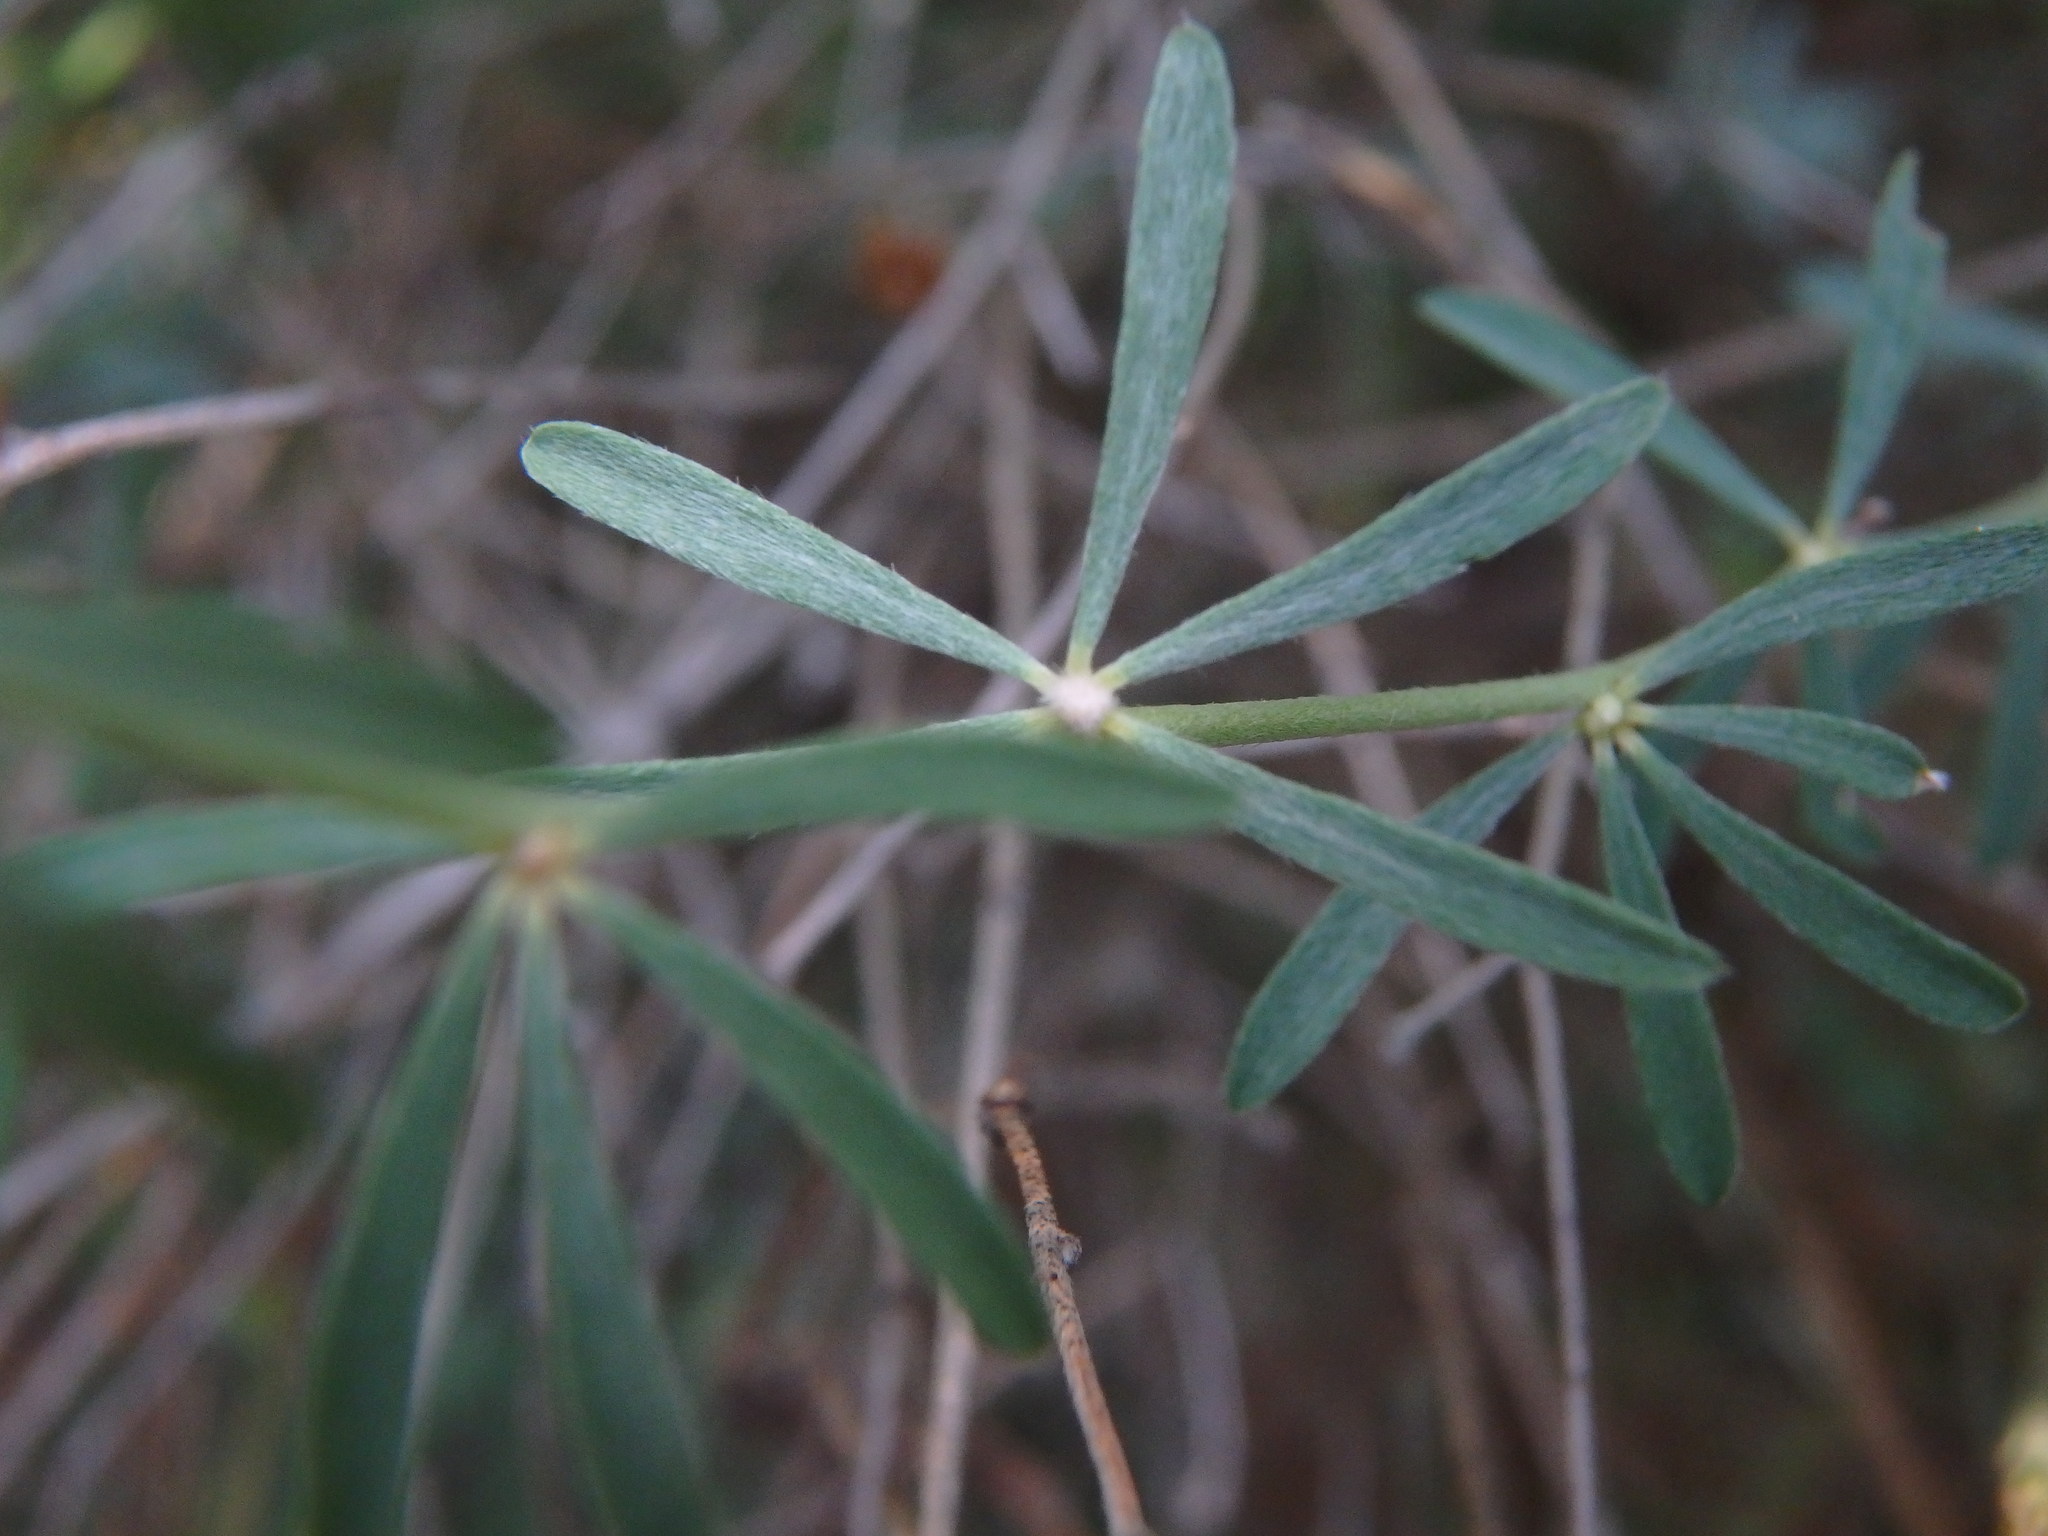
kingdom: Plantae
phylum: Tracheophyta
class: Magnoliopsida
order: Fabales
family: Fabaceae
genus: Lotus
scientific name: Lotus dorycnium
